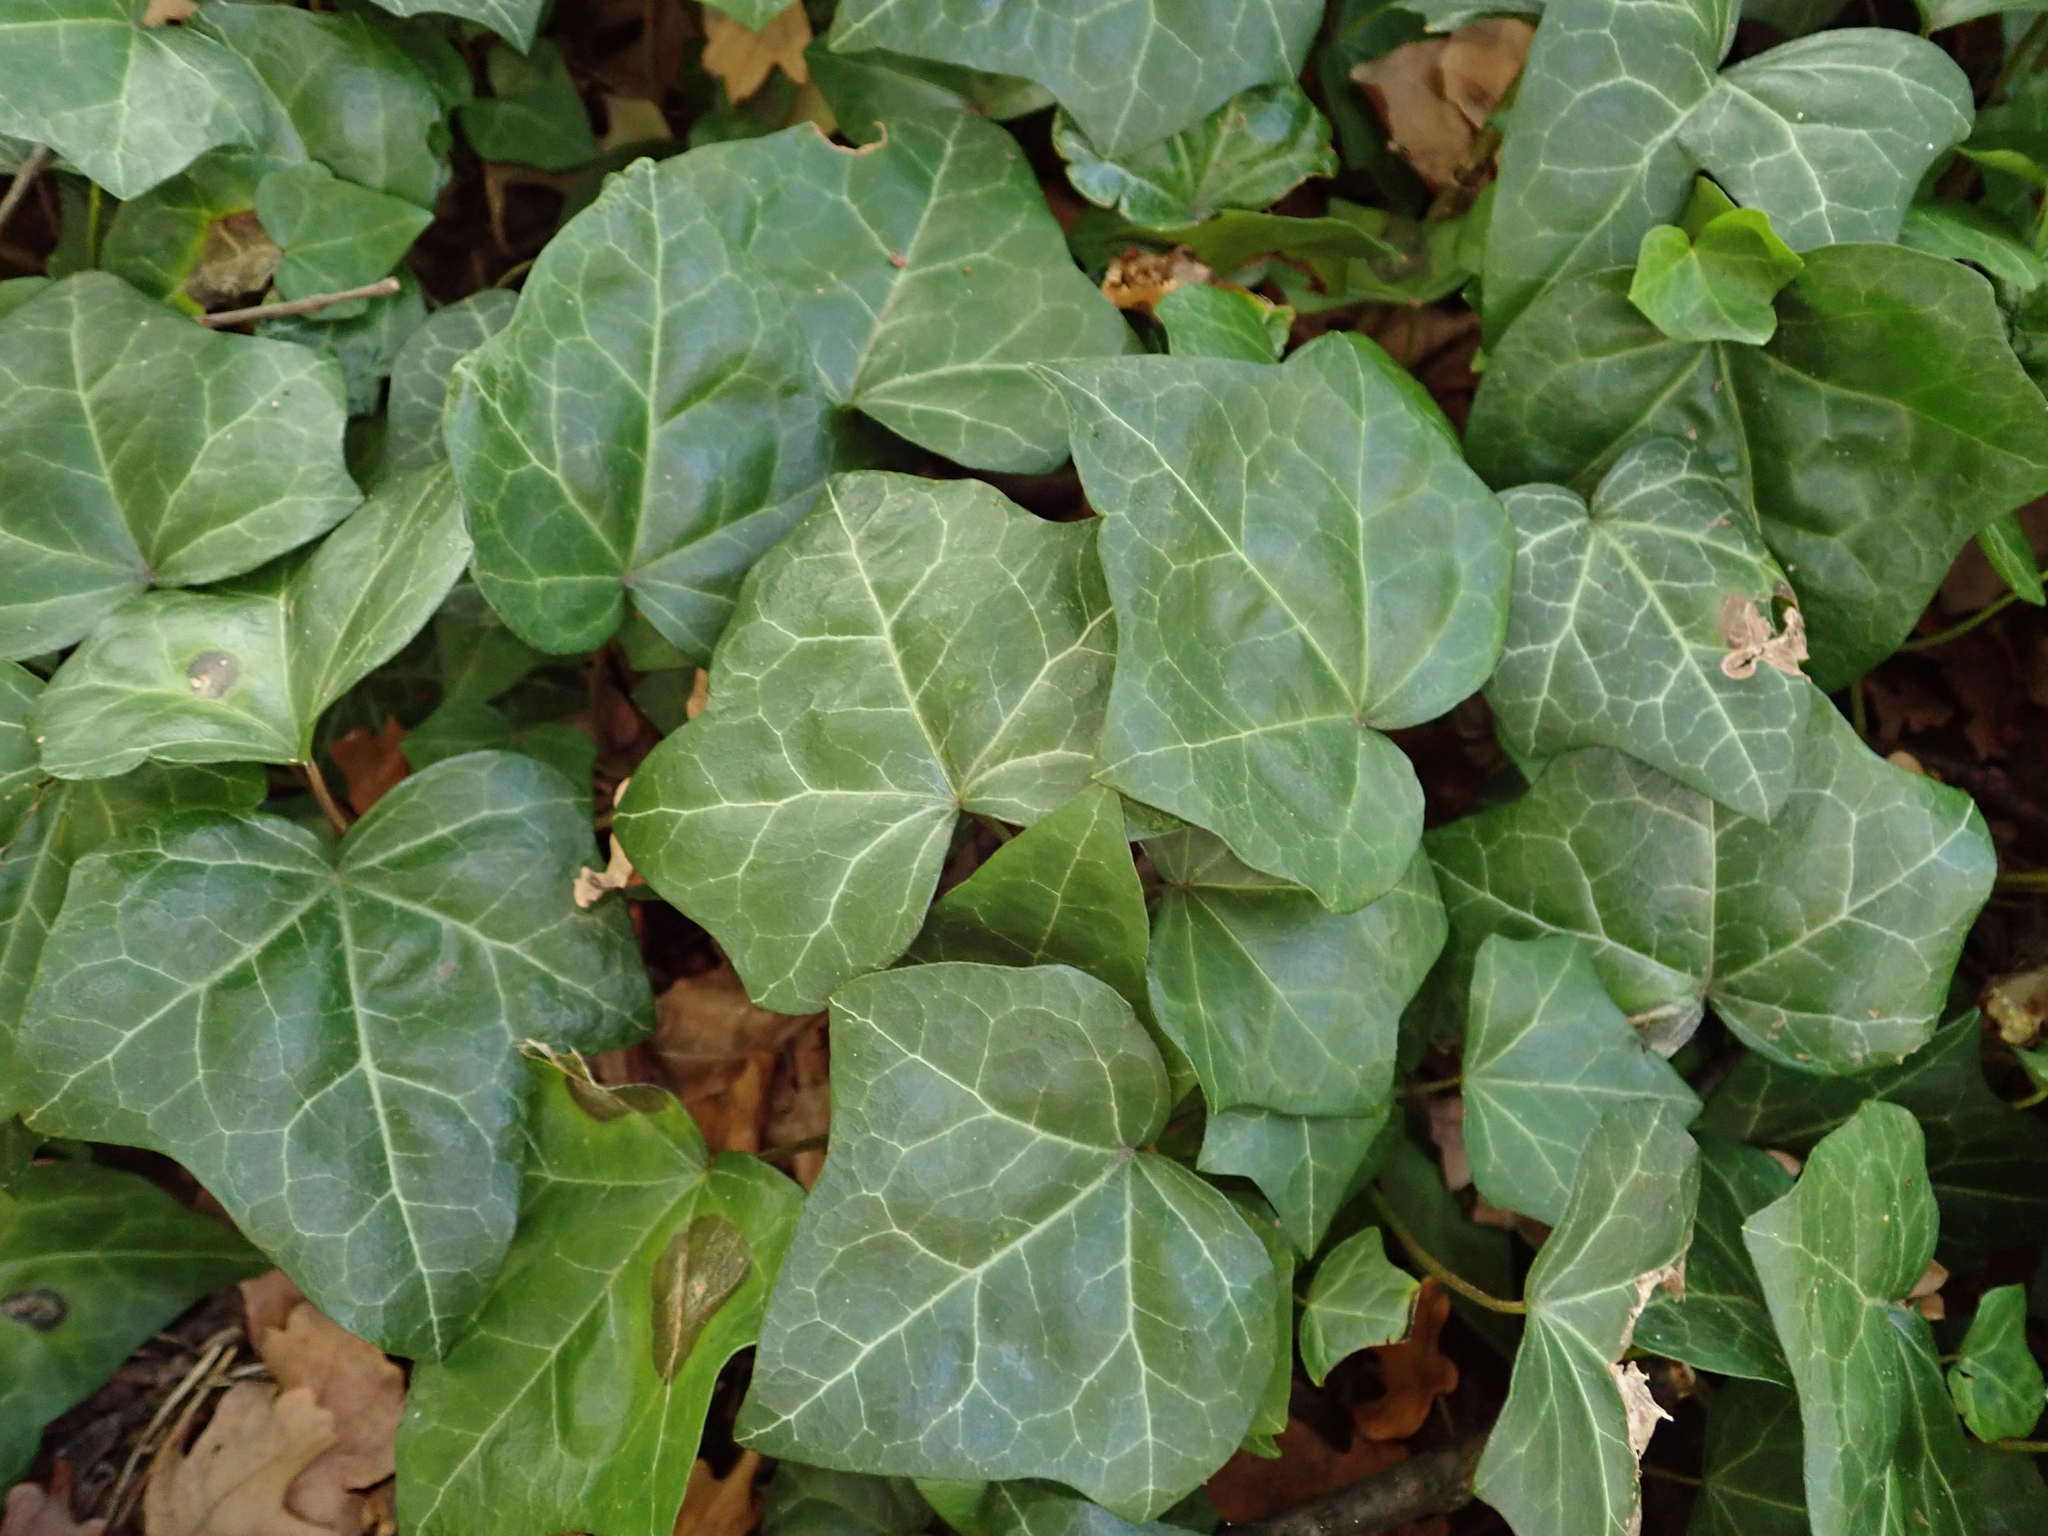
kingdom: Plantae
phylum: Tracheophyta
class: Magnoliopsida
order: Apiales
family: Araliaceae
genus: Hedera
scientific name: Hedera helix
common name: Ivy
